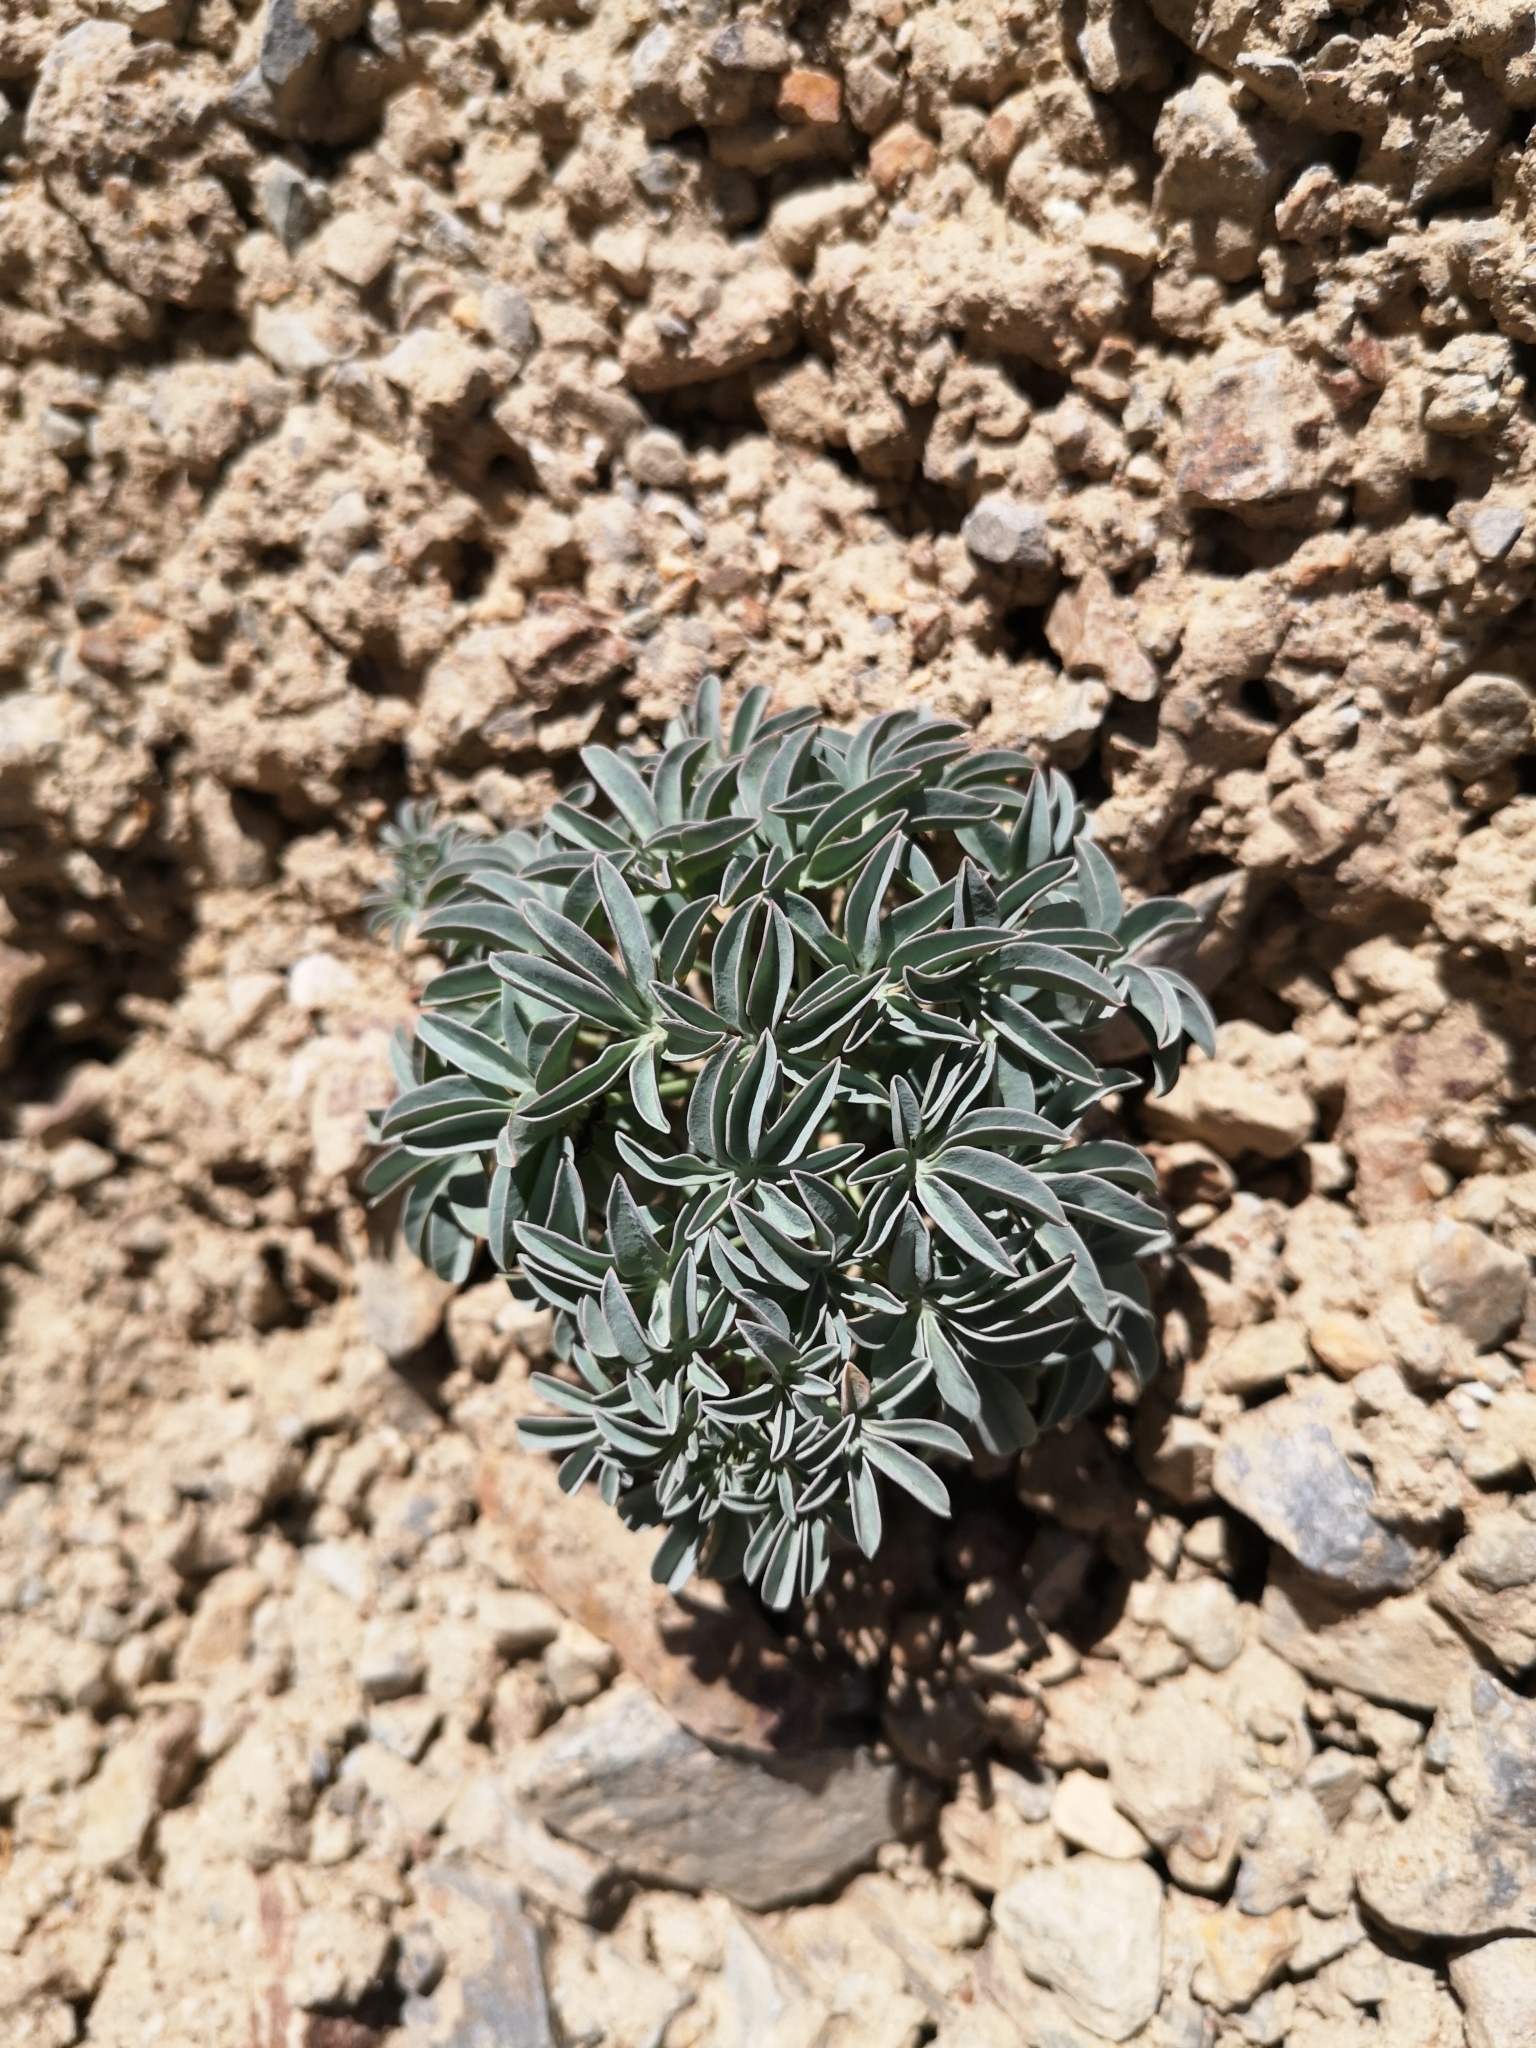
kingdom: Plantae
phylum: Tracheophyta
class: Magnoliopsida
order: Brassicales
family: Tropaeolaceae
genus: Tropaeolum
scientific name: Tropaeolum polyphyllum
